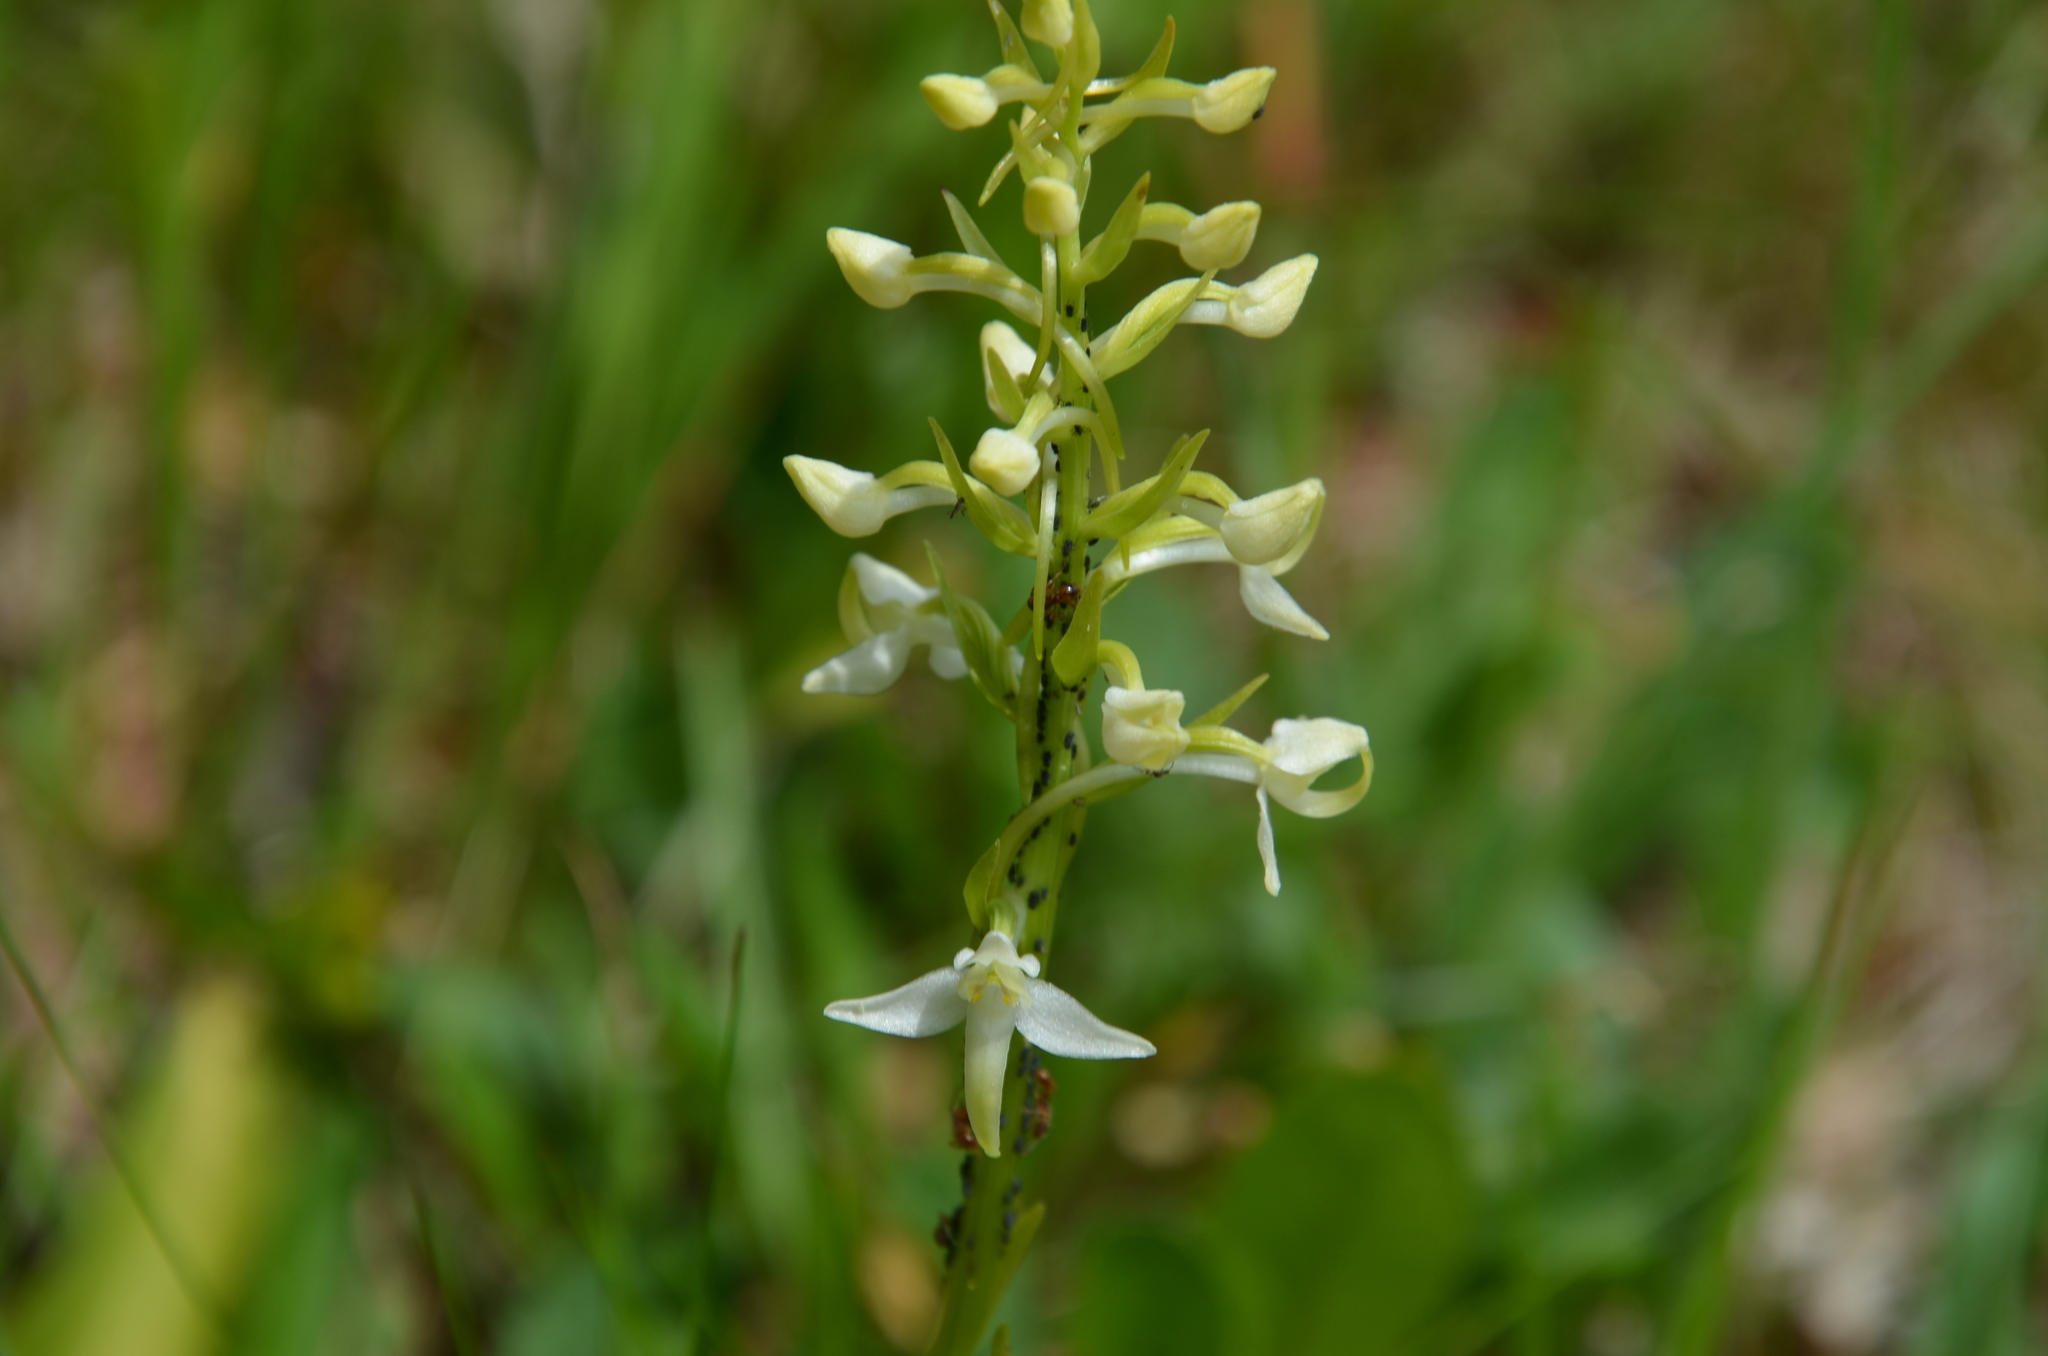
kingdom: Plantae
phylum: Tracheophyta
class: Liliopsida
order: Asparagales
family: Orchidaceae
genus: Platanthera
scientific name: Platanthera bifolia
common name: Lesser butterfly-orchid
